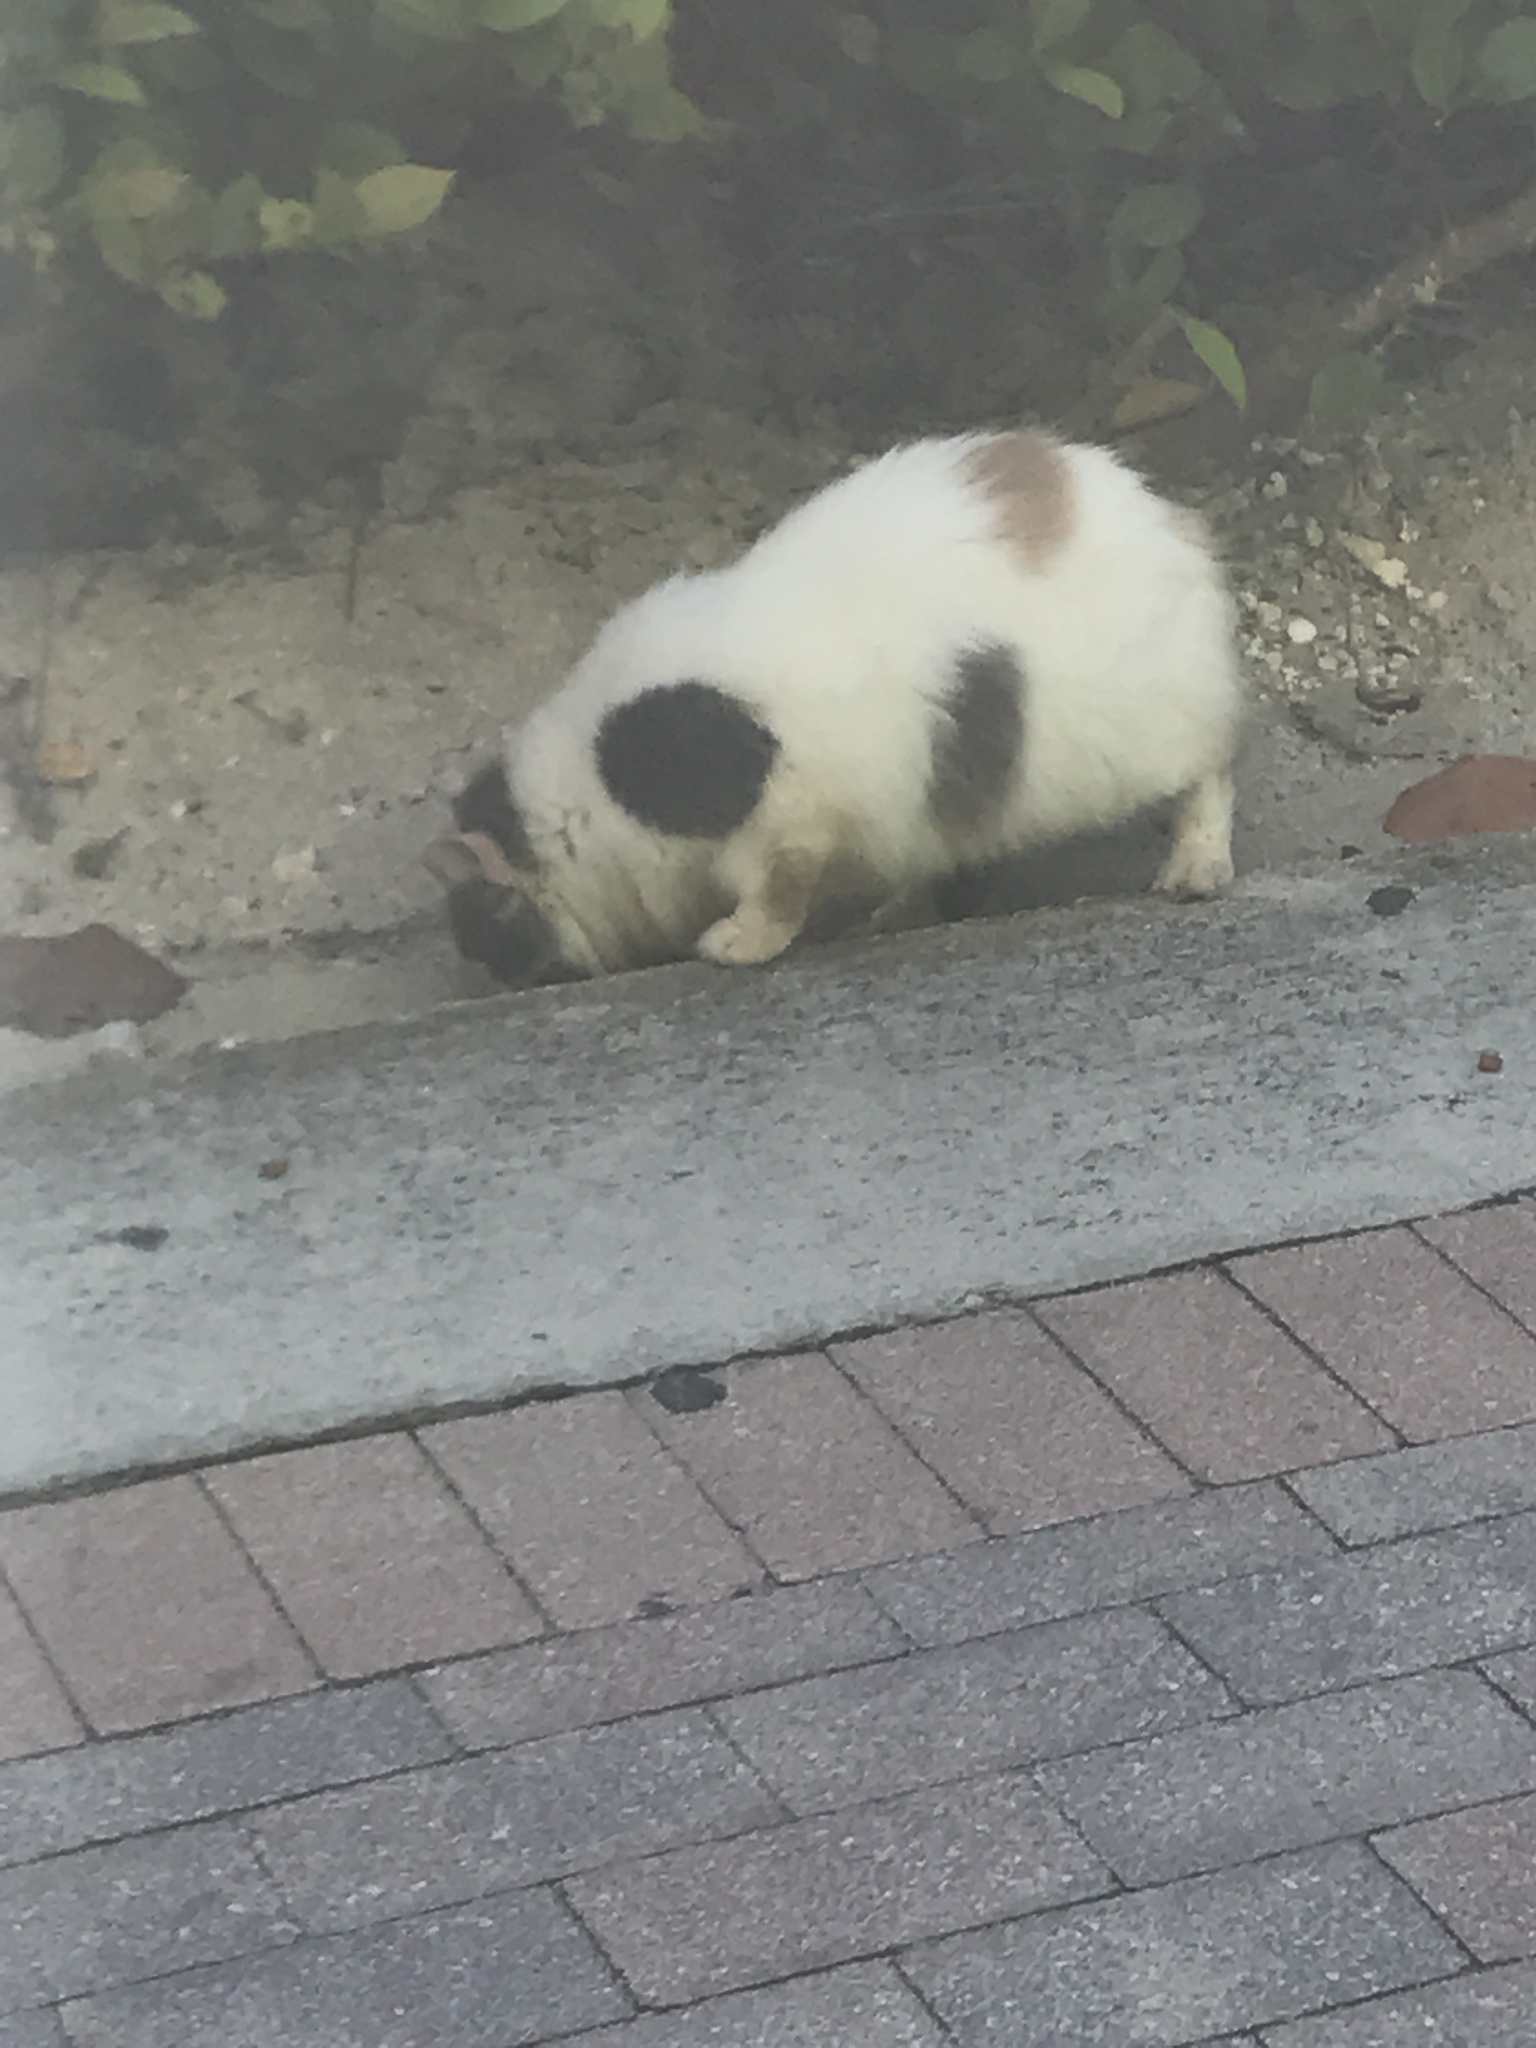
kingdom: Animalia
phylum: Chordata
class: Mammalia
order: Carnivora
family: Felidae
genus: Felis
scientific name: Felis catus
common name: Domestic cat
